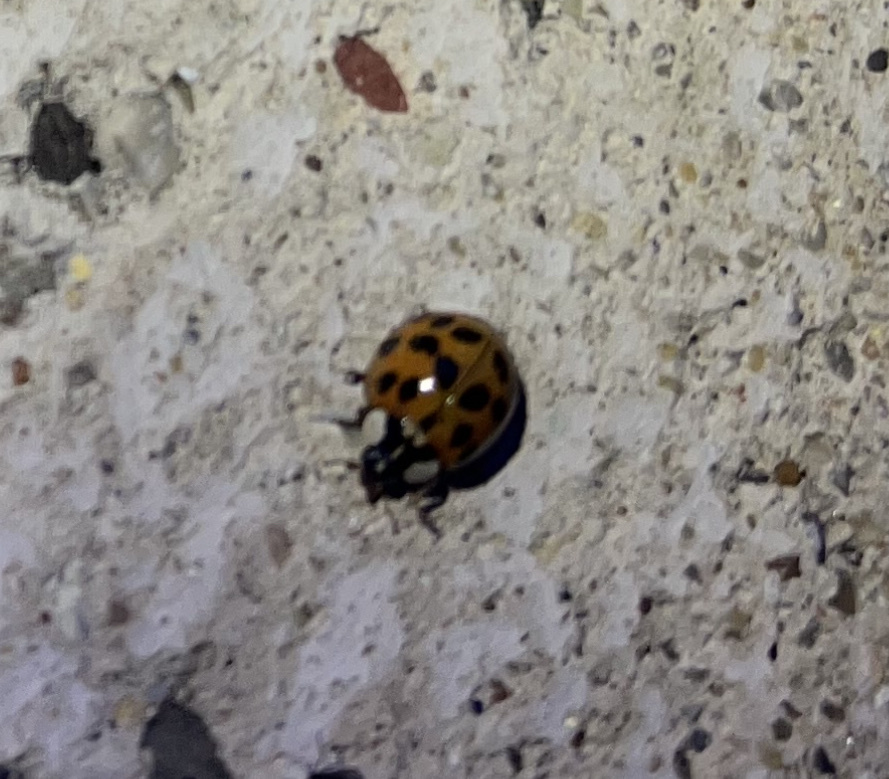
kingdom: Animalia
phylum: Arthropoda
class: Insecta
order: Coleoptera
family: Coccinellidae
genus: Harmonia
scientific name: Harmonia axyridis
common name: Harlequin ladybird
